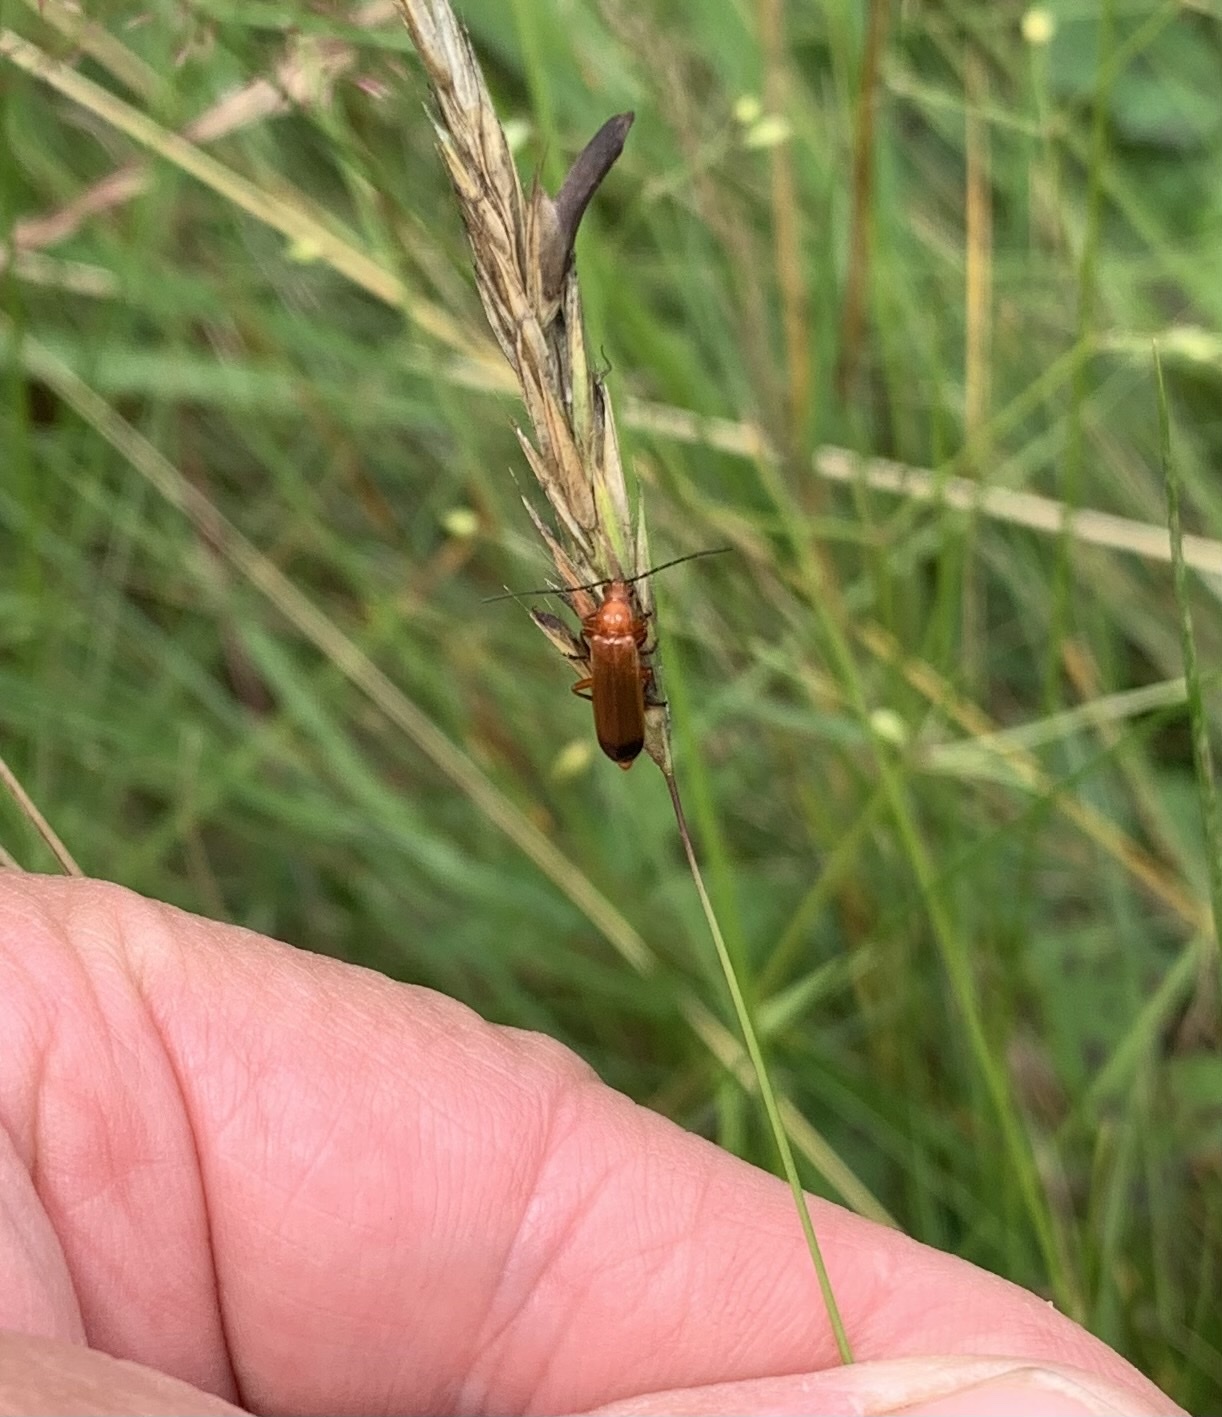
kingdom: Animalia
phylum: Arthropoda
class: Insecta
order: Coleoptera
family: Cantharidae
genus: Rhagonycha
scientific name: Rhagonycha fulva
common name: Common red soldier beetle
